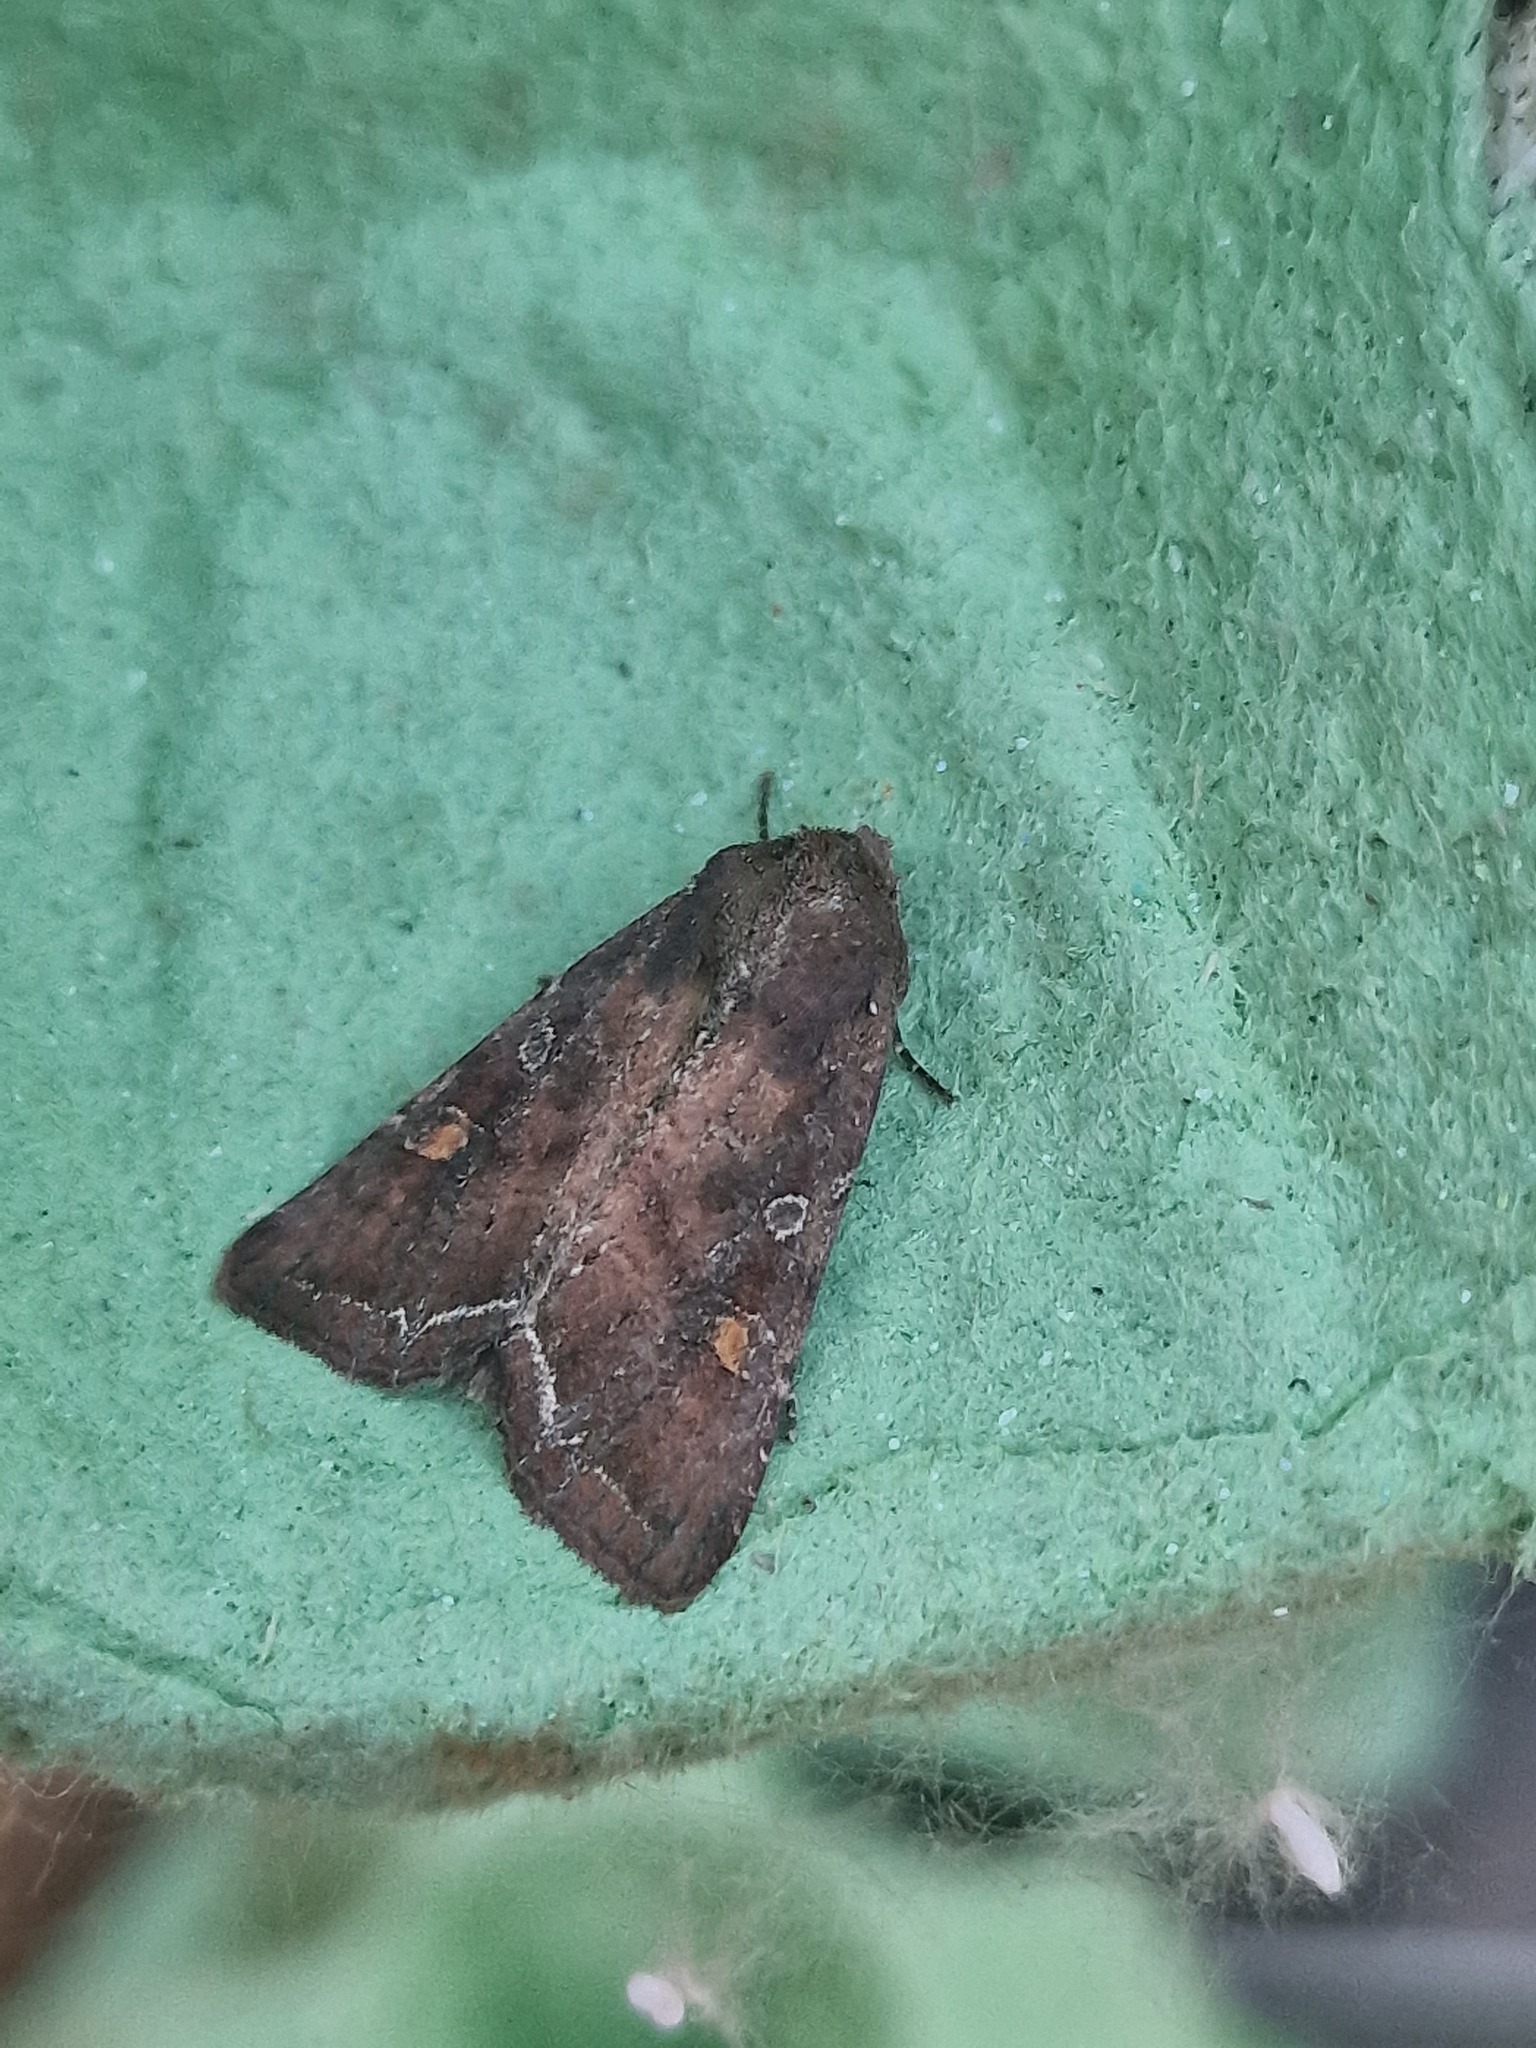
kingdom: Animalia
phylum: Arthropoda
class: Insecta
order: Lepidoptera
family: Noctuidae
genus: Lacanobia
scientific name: Lacanobia oleracea
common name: Bright-line brown-eye
